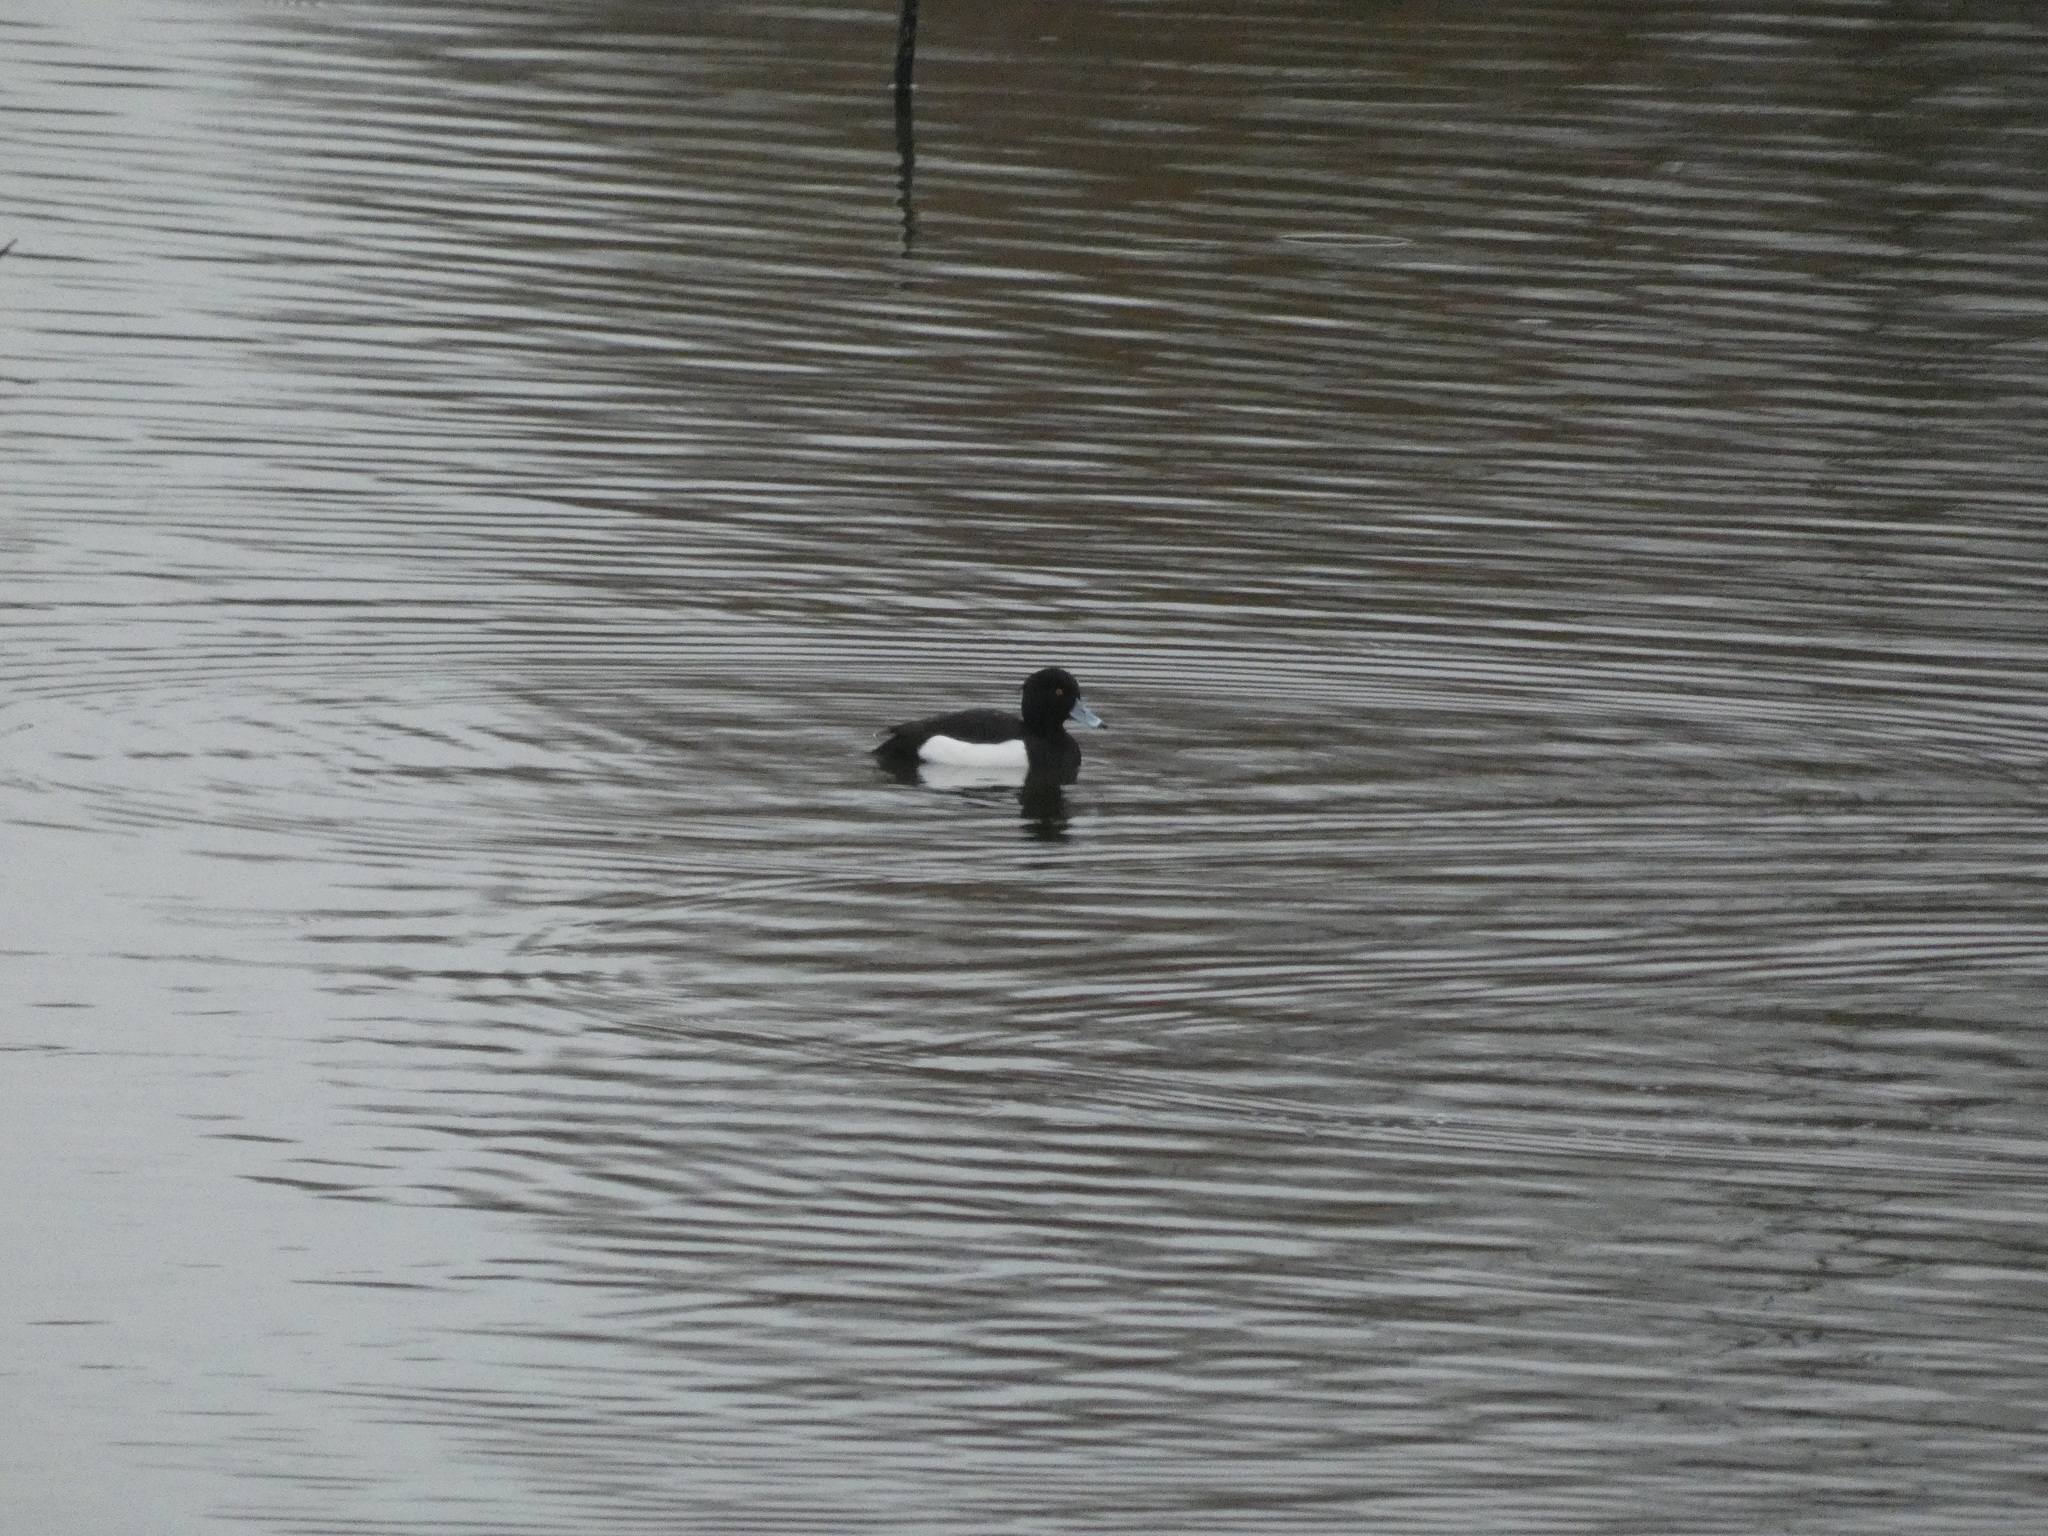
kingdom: Animalia
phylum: Chordata
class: Aves
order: Anseriformes
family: Anatidae
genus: Aythya
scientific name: Aythya fuligula
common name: Tufted duck
